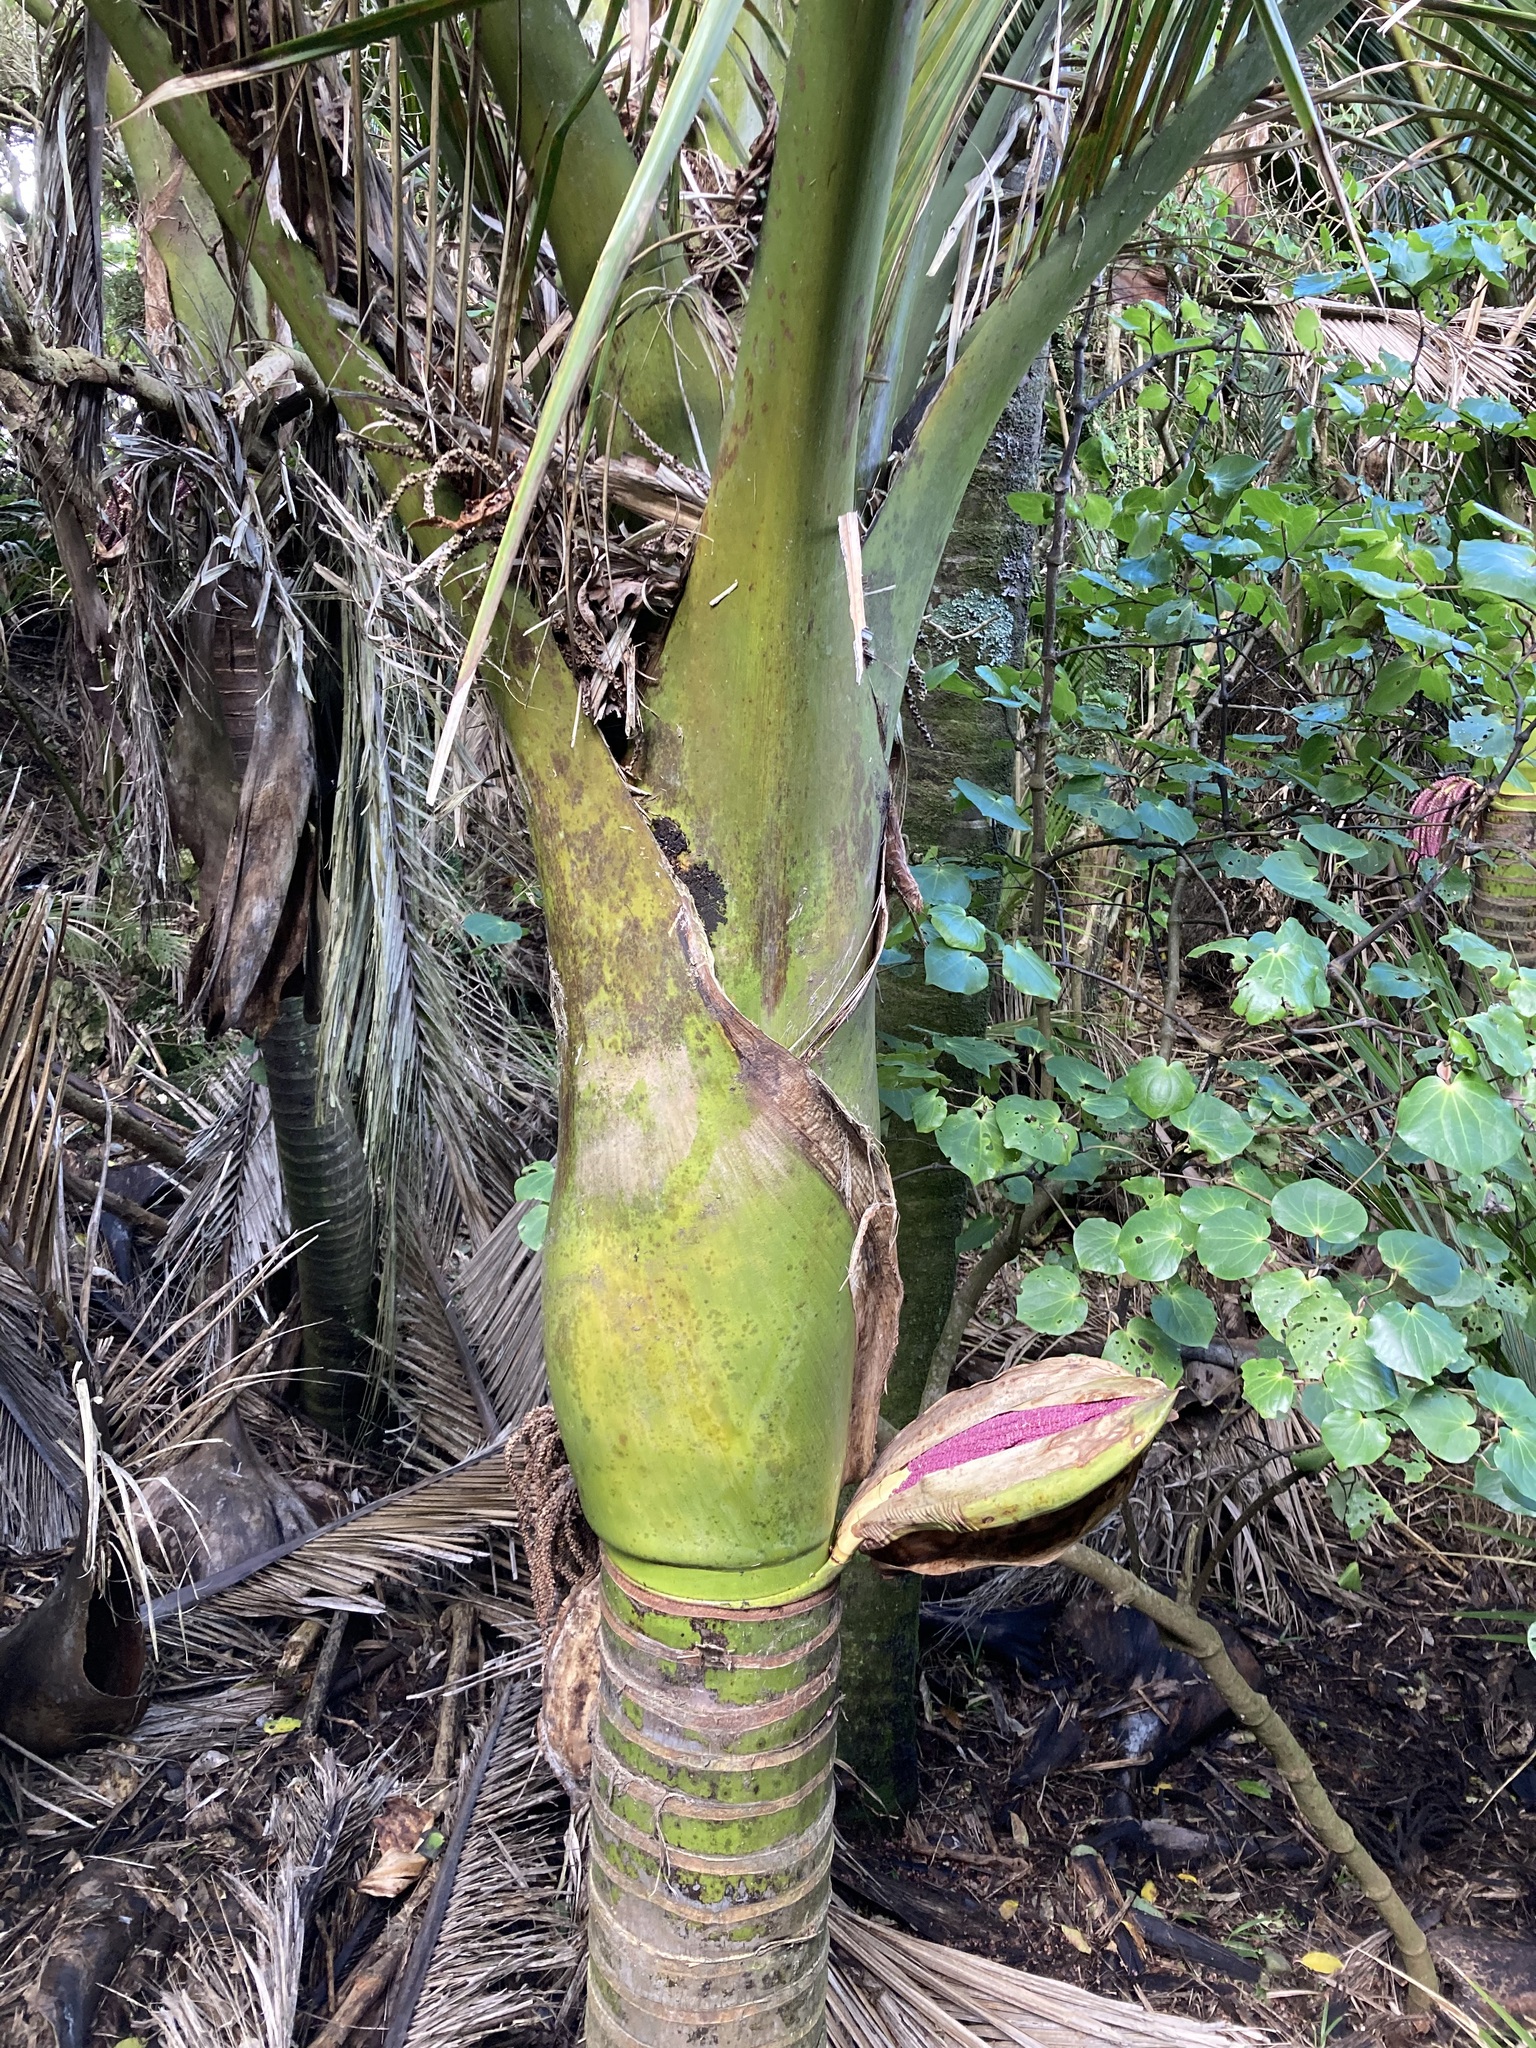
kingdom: Plantae
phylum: Tracheophyta
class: Liliopsida
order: Arecales
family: Arecaceae
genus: Rhopalostylis
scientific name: Rhopalostylis sapida
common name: Feather-duster palm
